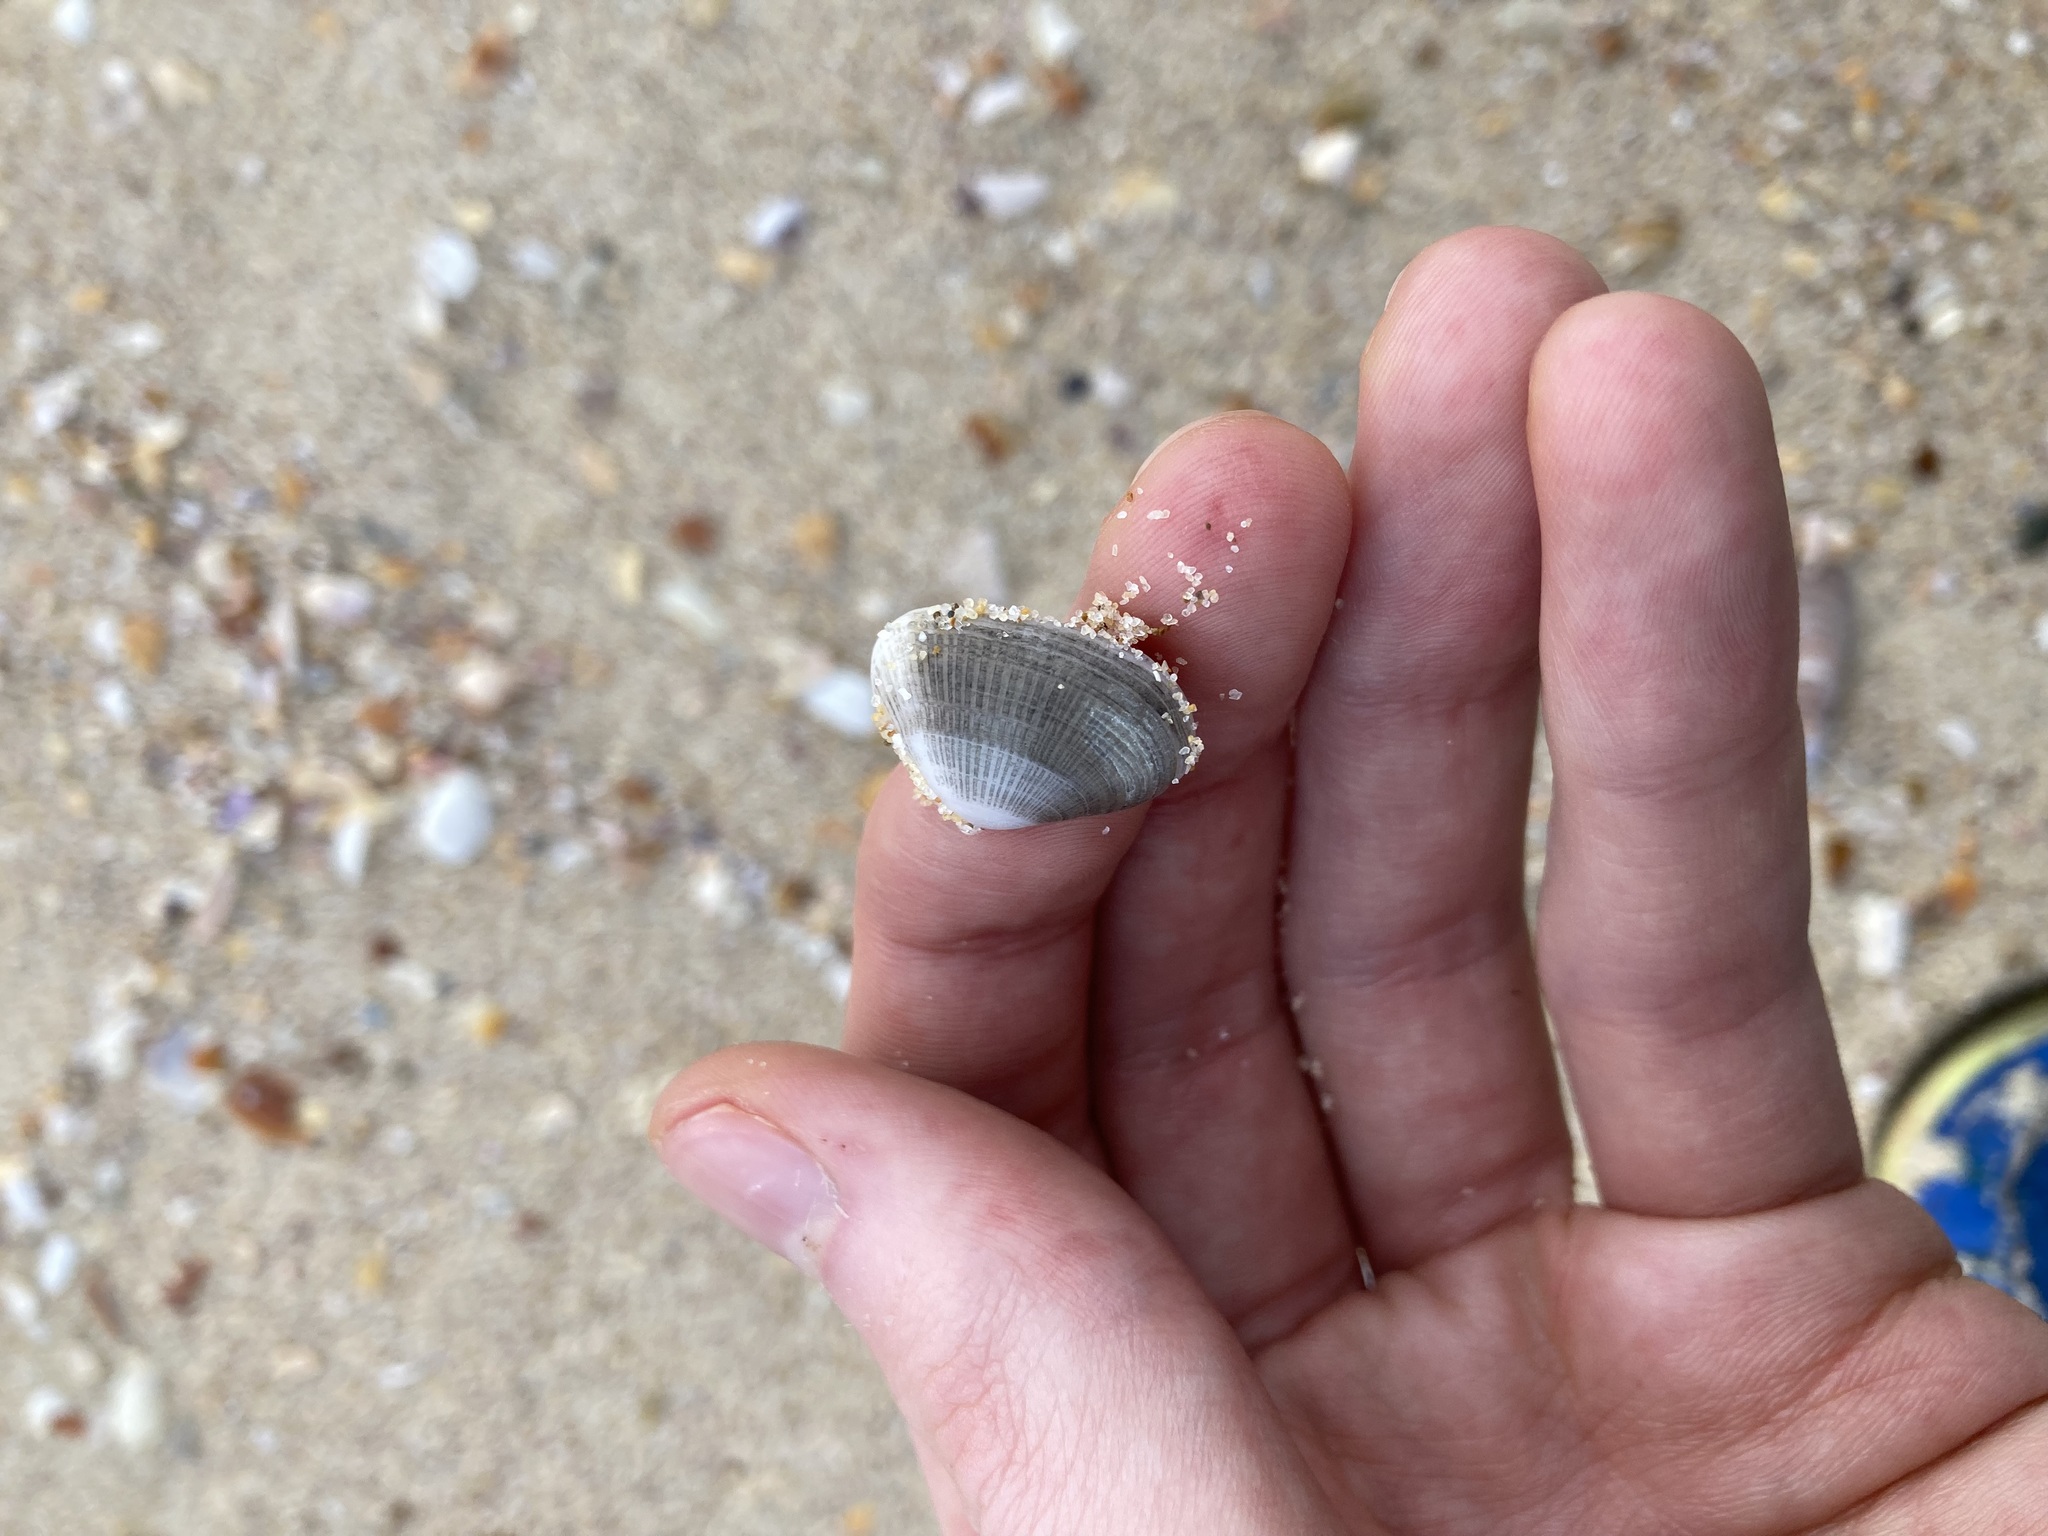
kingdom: Animalia
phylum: Mollusca
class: Bivalvia
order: Venerida
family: Hemidonacidae
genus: Hemidonax
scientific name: Hemidonax dactylus
